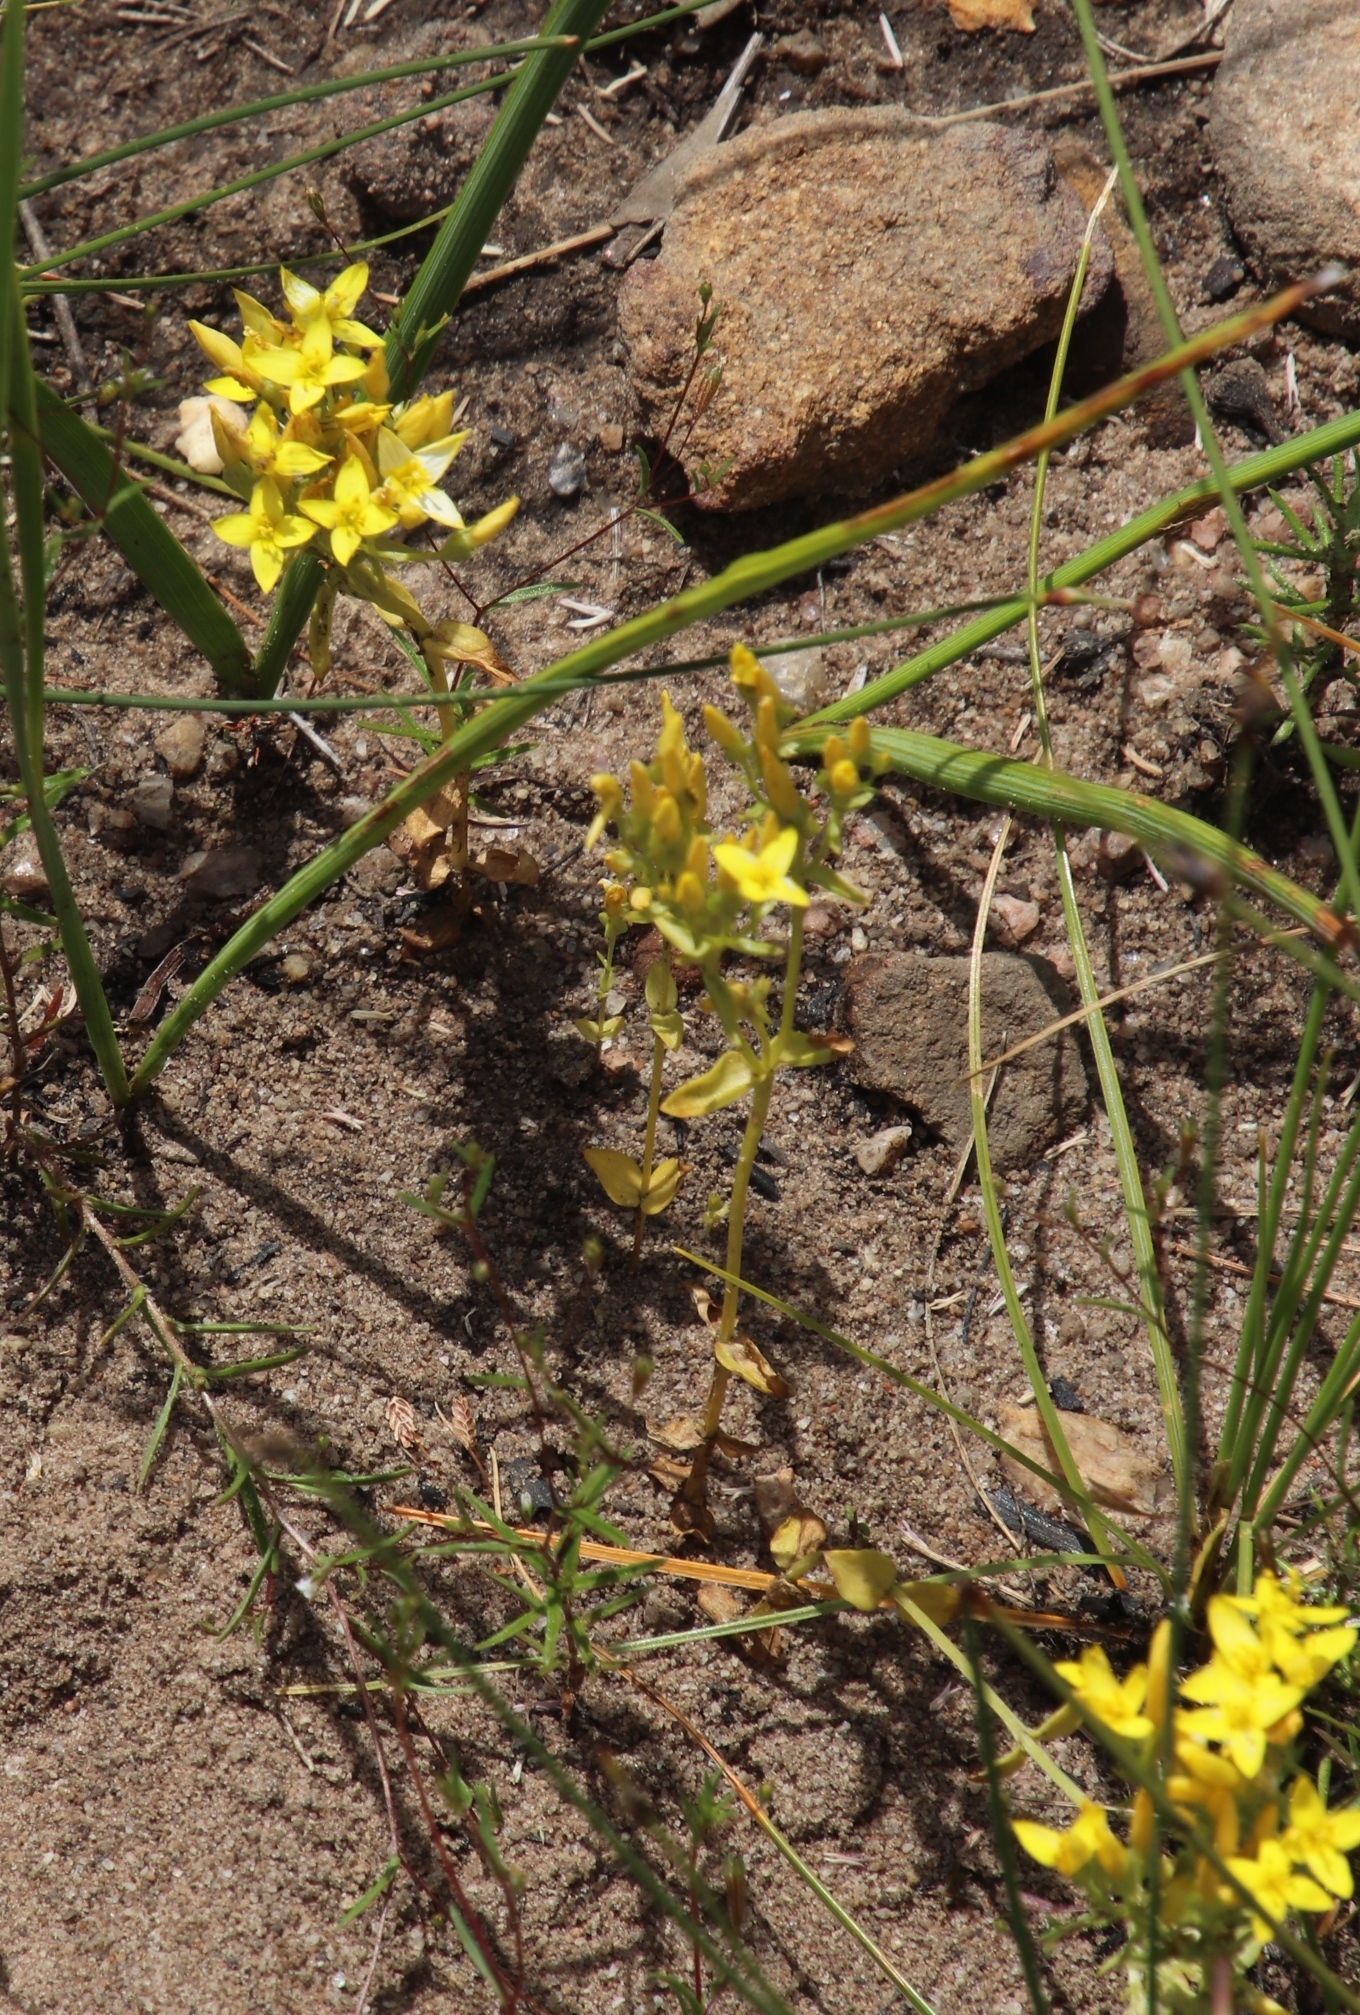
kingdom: Plantae
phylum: Tracheophyta
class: Magnoliopsida
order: Gentianales
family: Gentianaceae
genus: Sebaea
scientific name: Sebaea aurea
